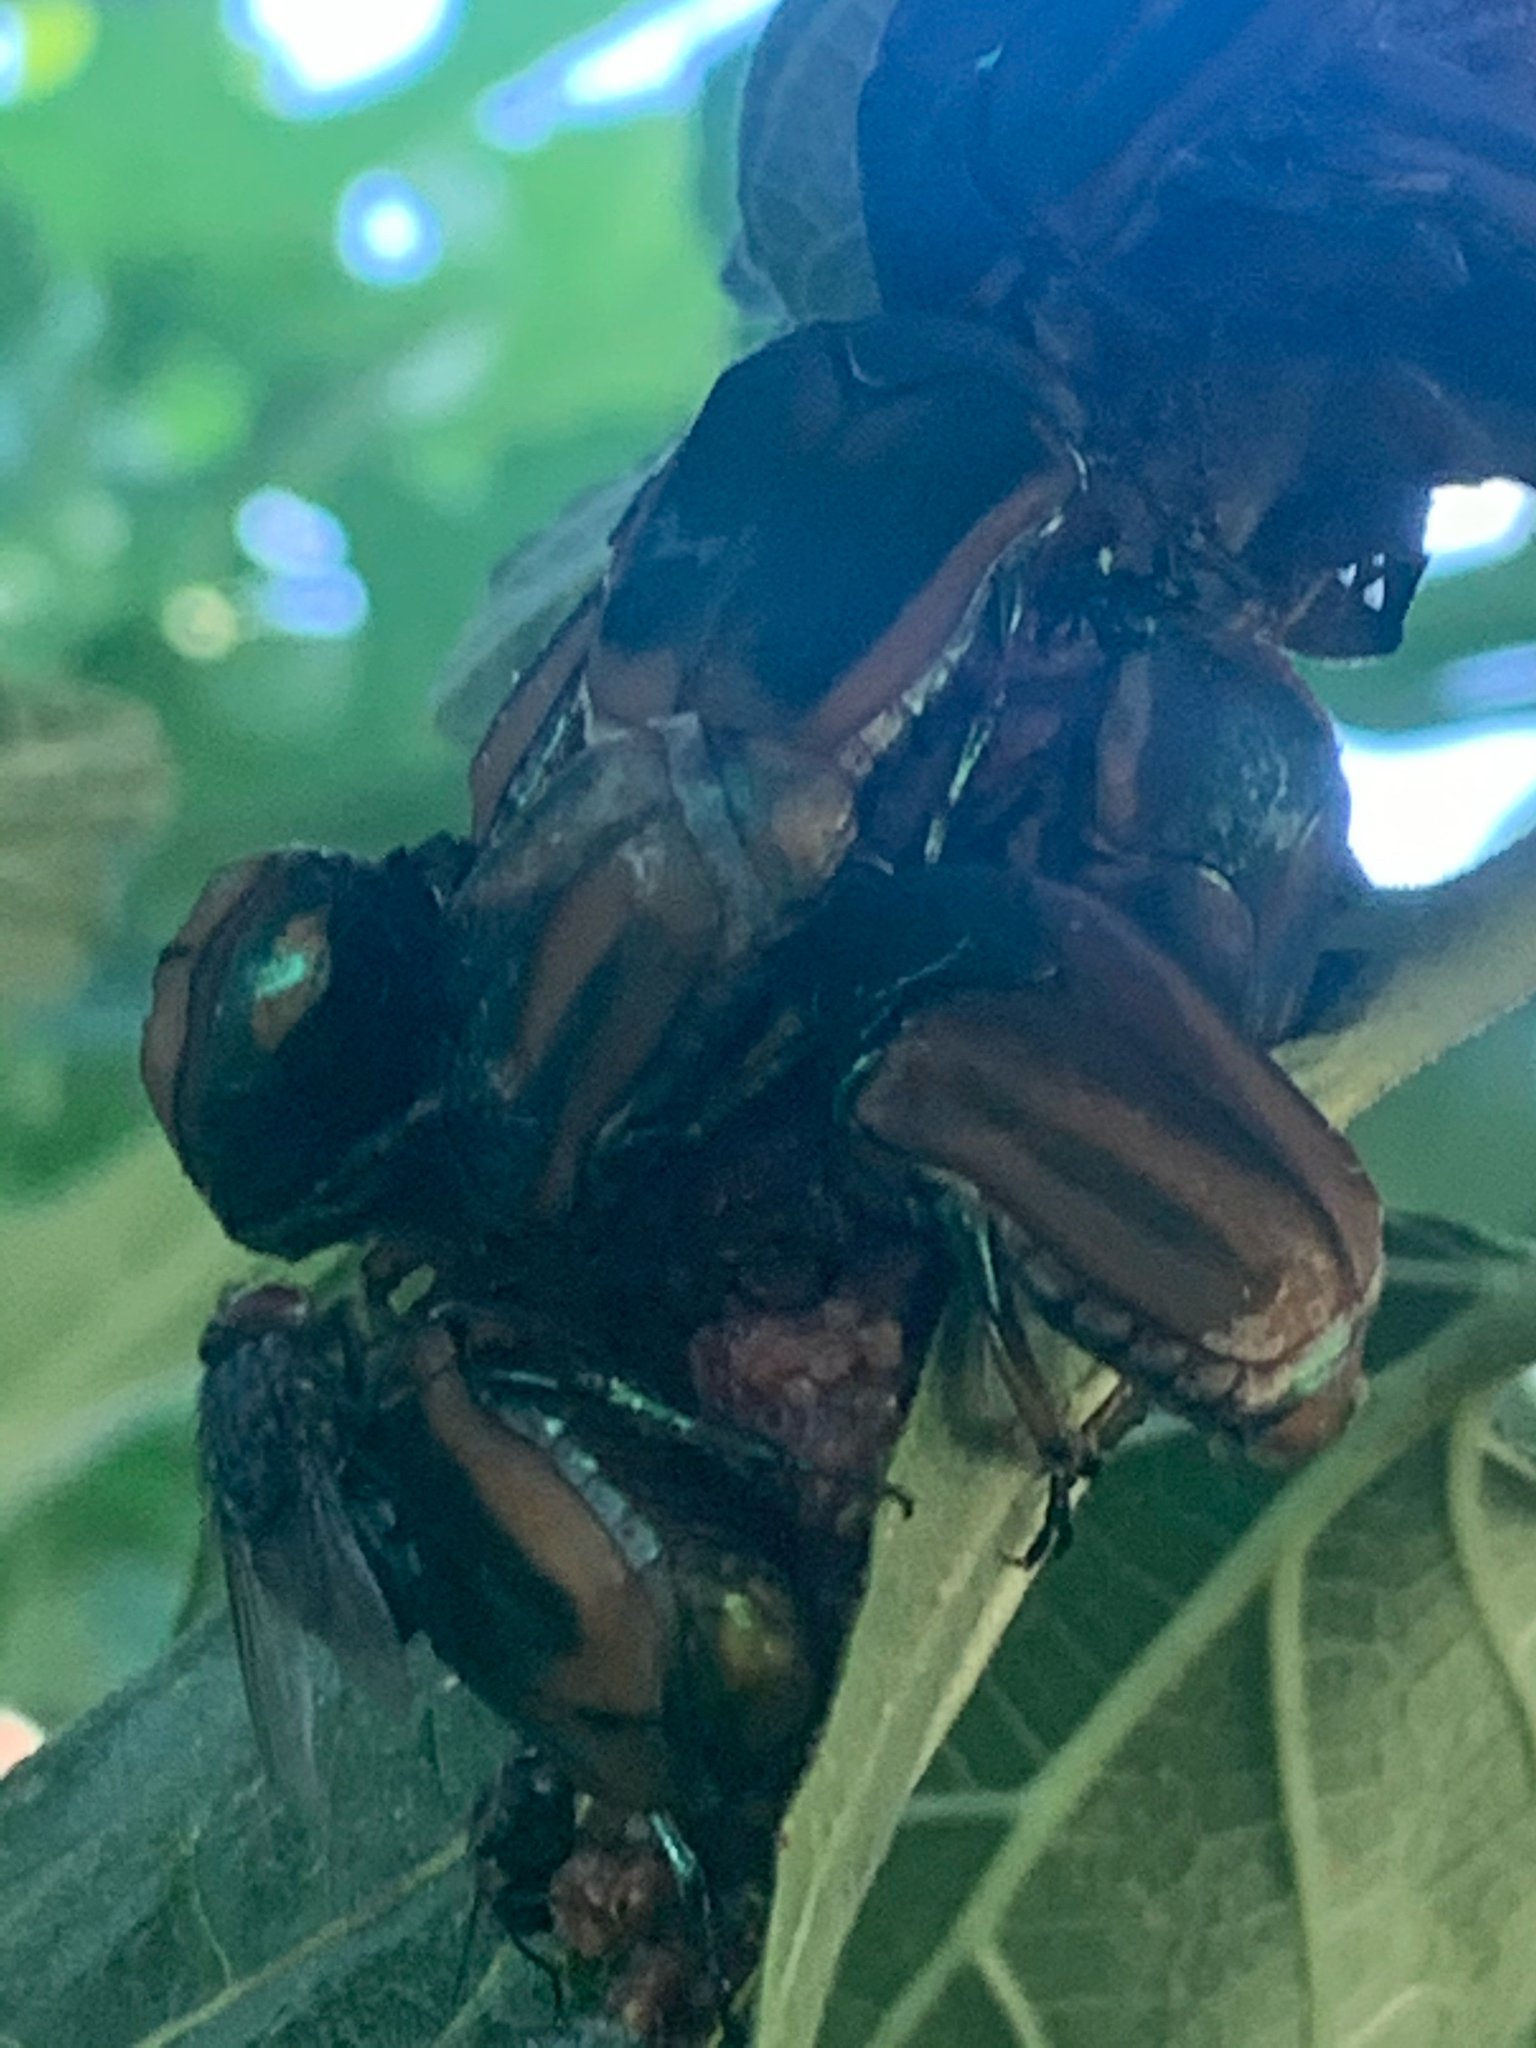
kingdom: Animalia
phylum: Arthropoda
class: Insecta
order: Coleoptera
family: Scarabaeidae
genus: Cotinis
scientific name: Cotinis nitida
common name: Common green june beetle
